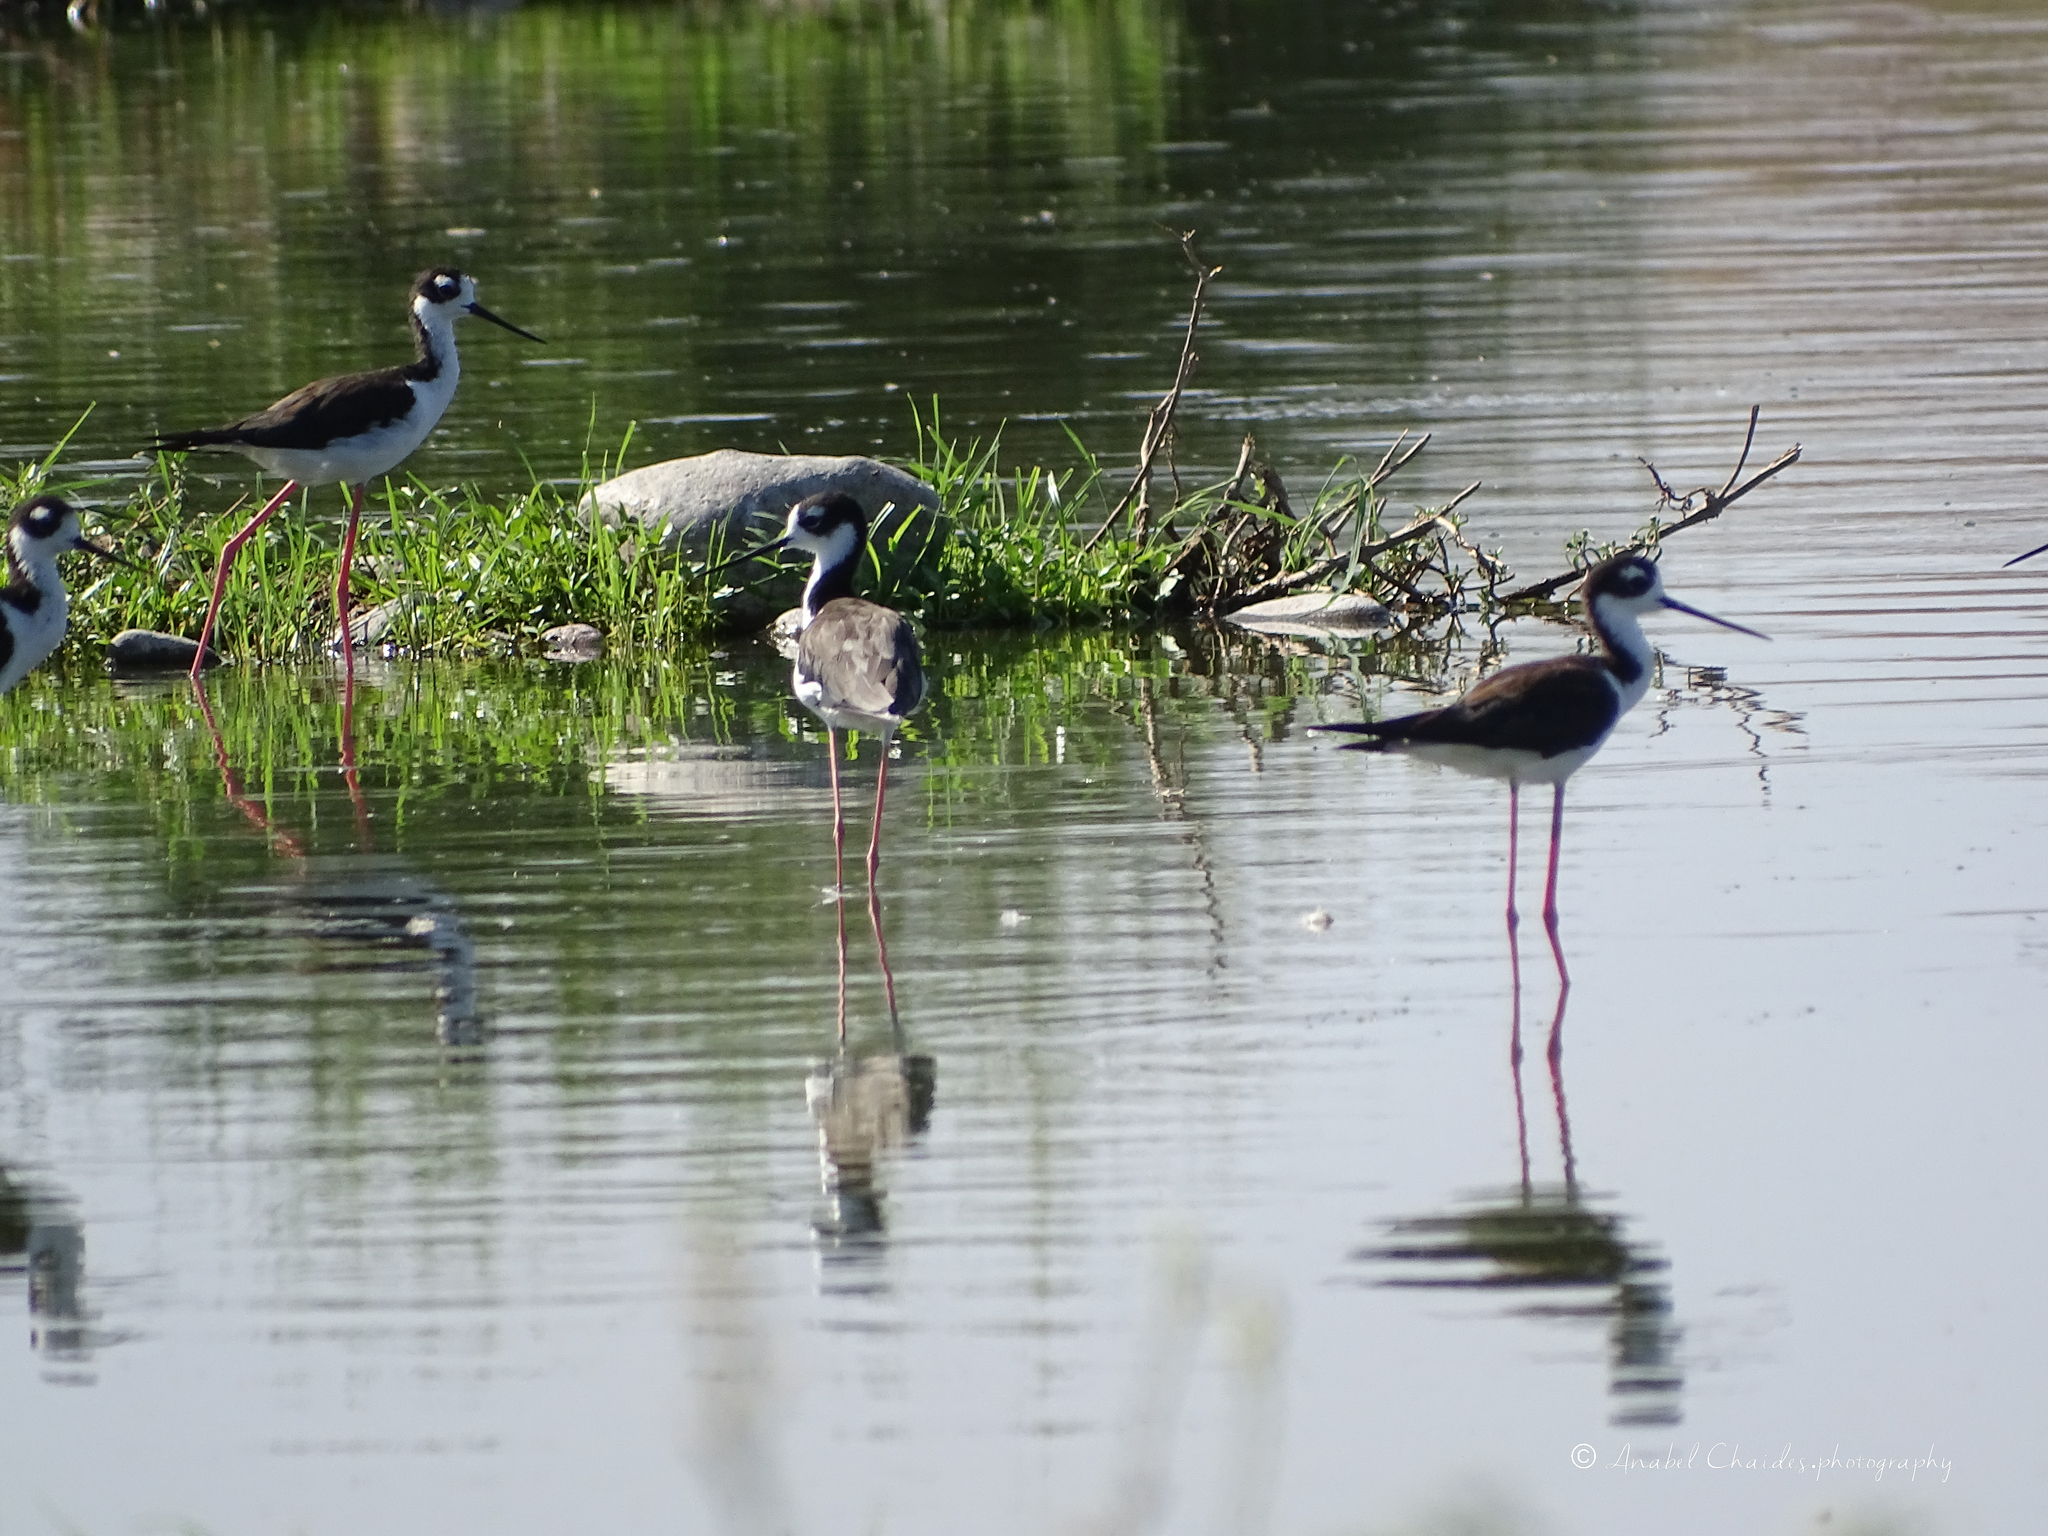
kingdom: Animalia
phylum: Chordata
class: Aves
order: Charadriiformes
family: Recurvirostridae
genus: Himantopus
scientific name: Himantopus mexicanus
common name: Black-necked stilt
